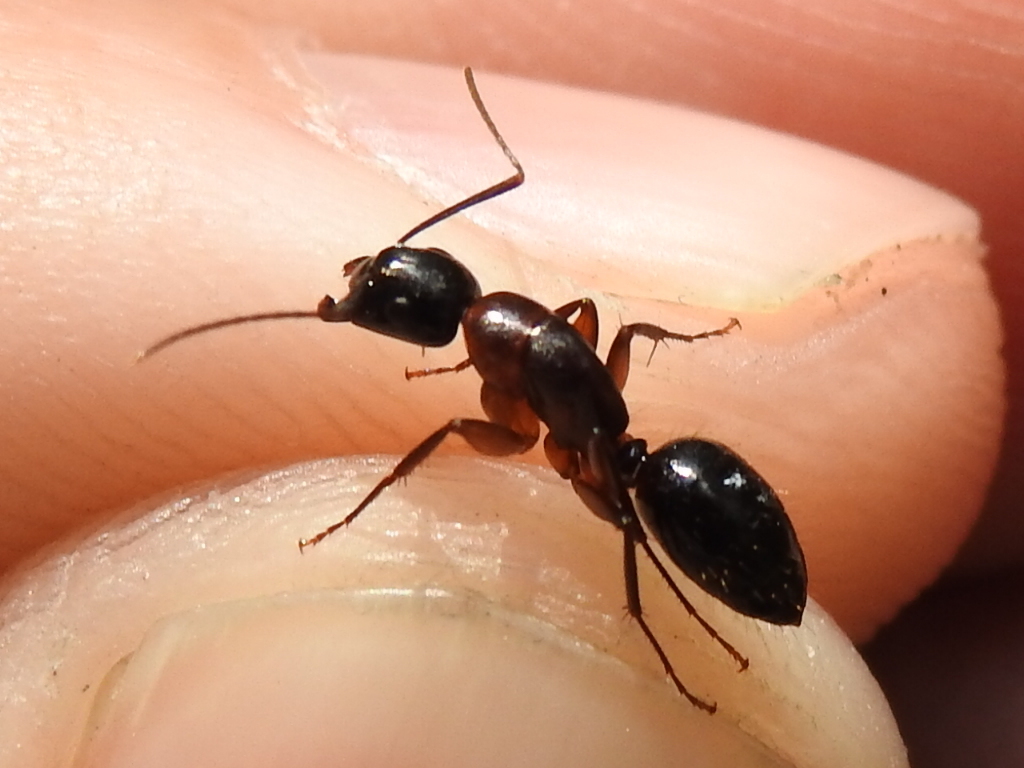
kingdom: Animalia
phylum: Arthropoda
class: Insecta
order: Hymenoptera
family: Formicidae
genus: Camponotus
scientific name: Camponotus texanus
